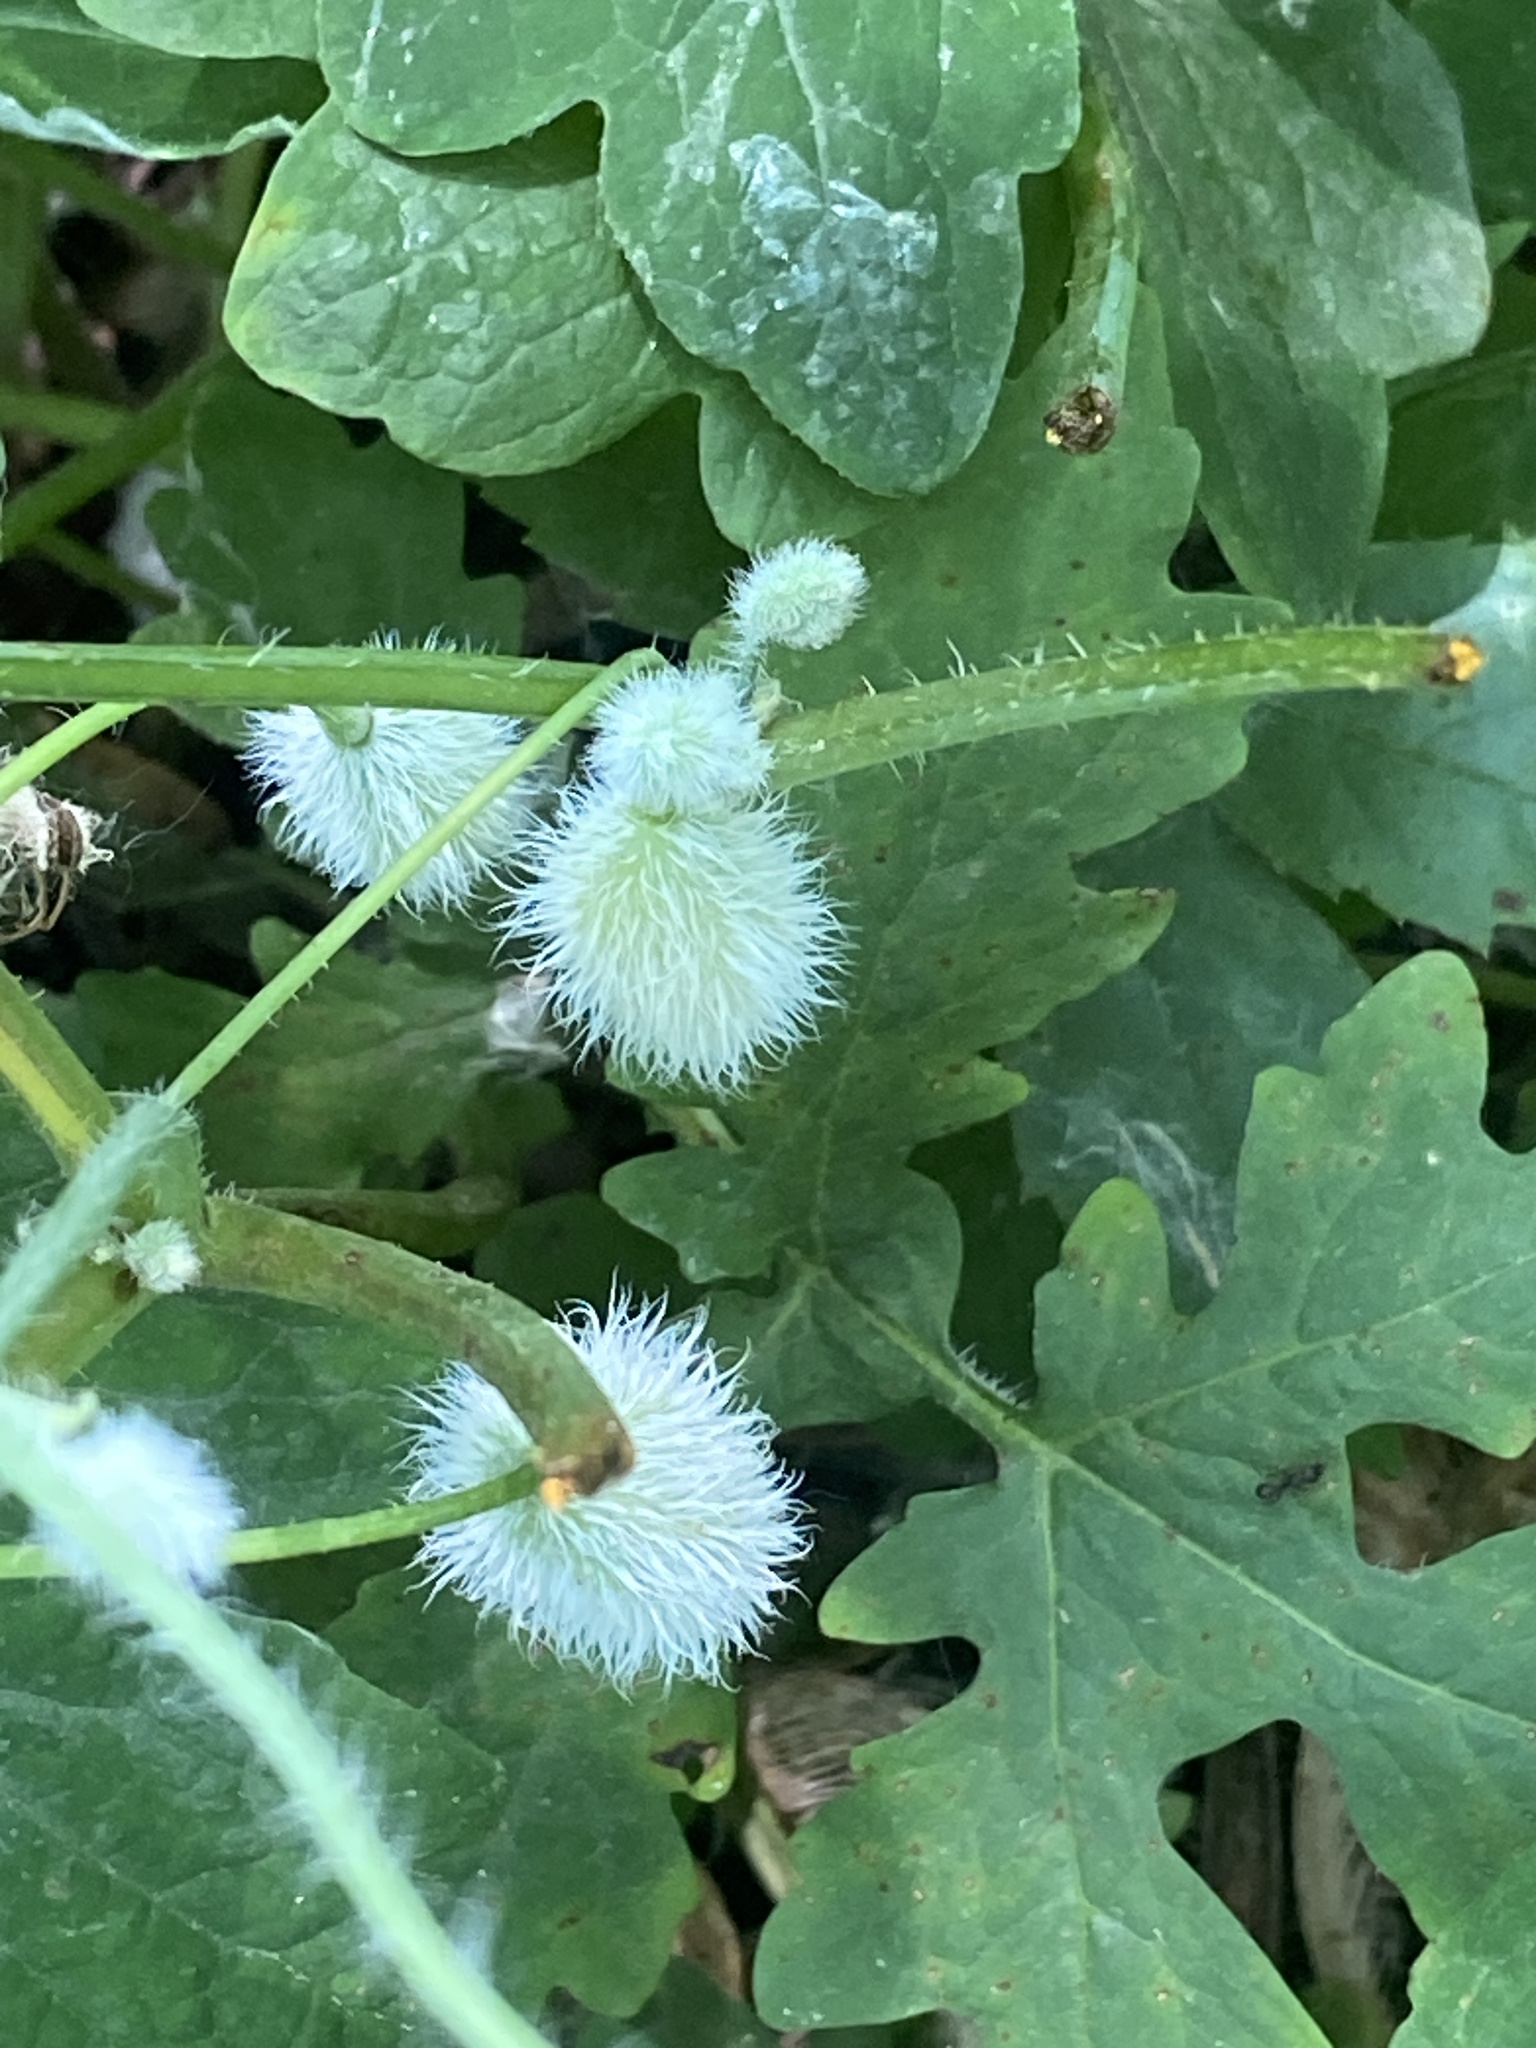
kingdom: Plantae
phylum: Tracheophyta
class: Magnoliopsida
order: Ranunculales
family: Papaveraceae
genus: Stylophorum
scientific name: Stylophorum diphyllum
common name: Celandine poppy
